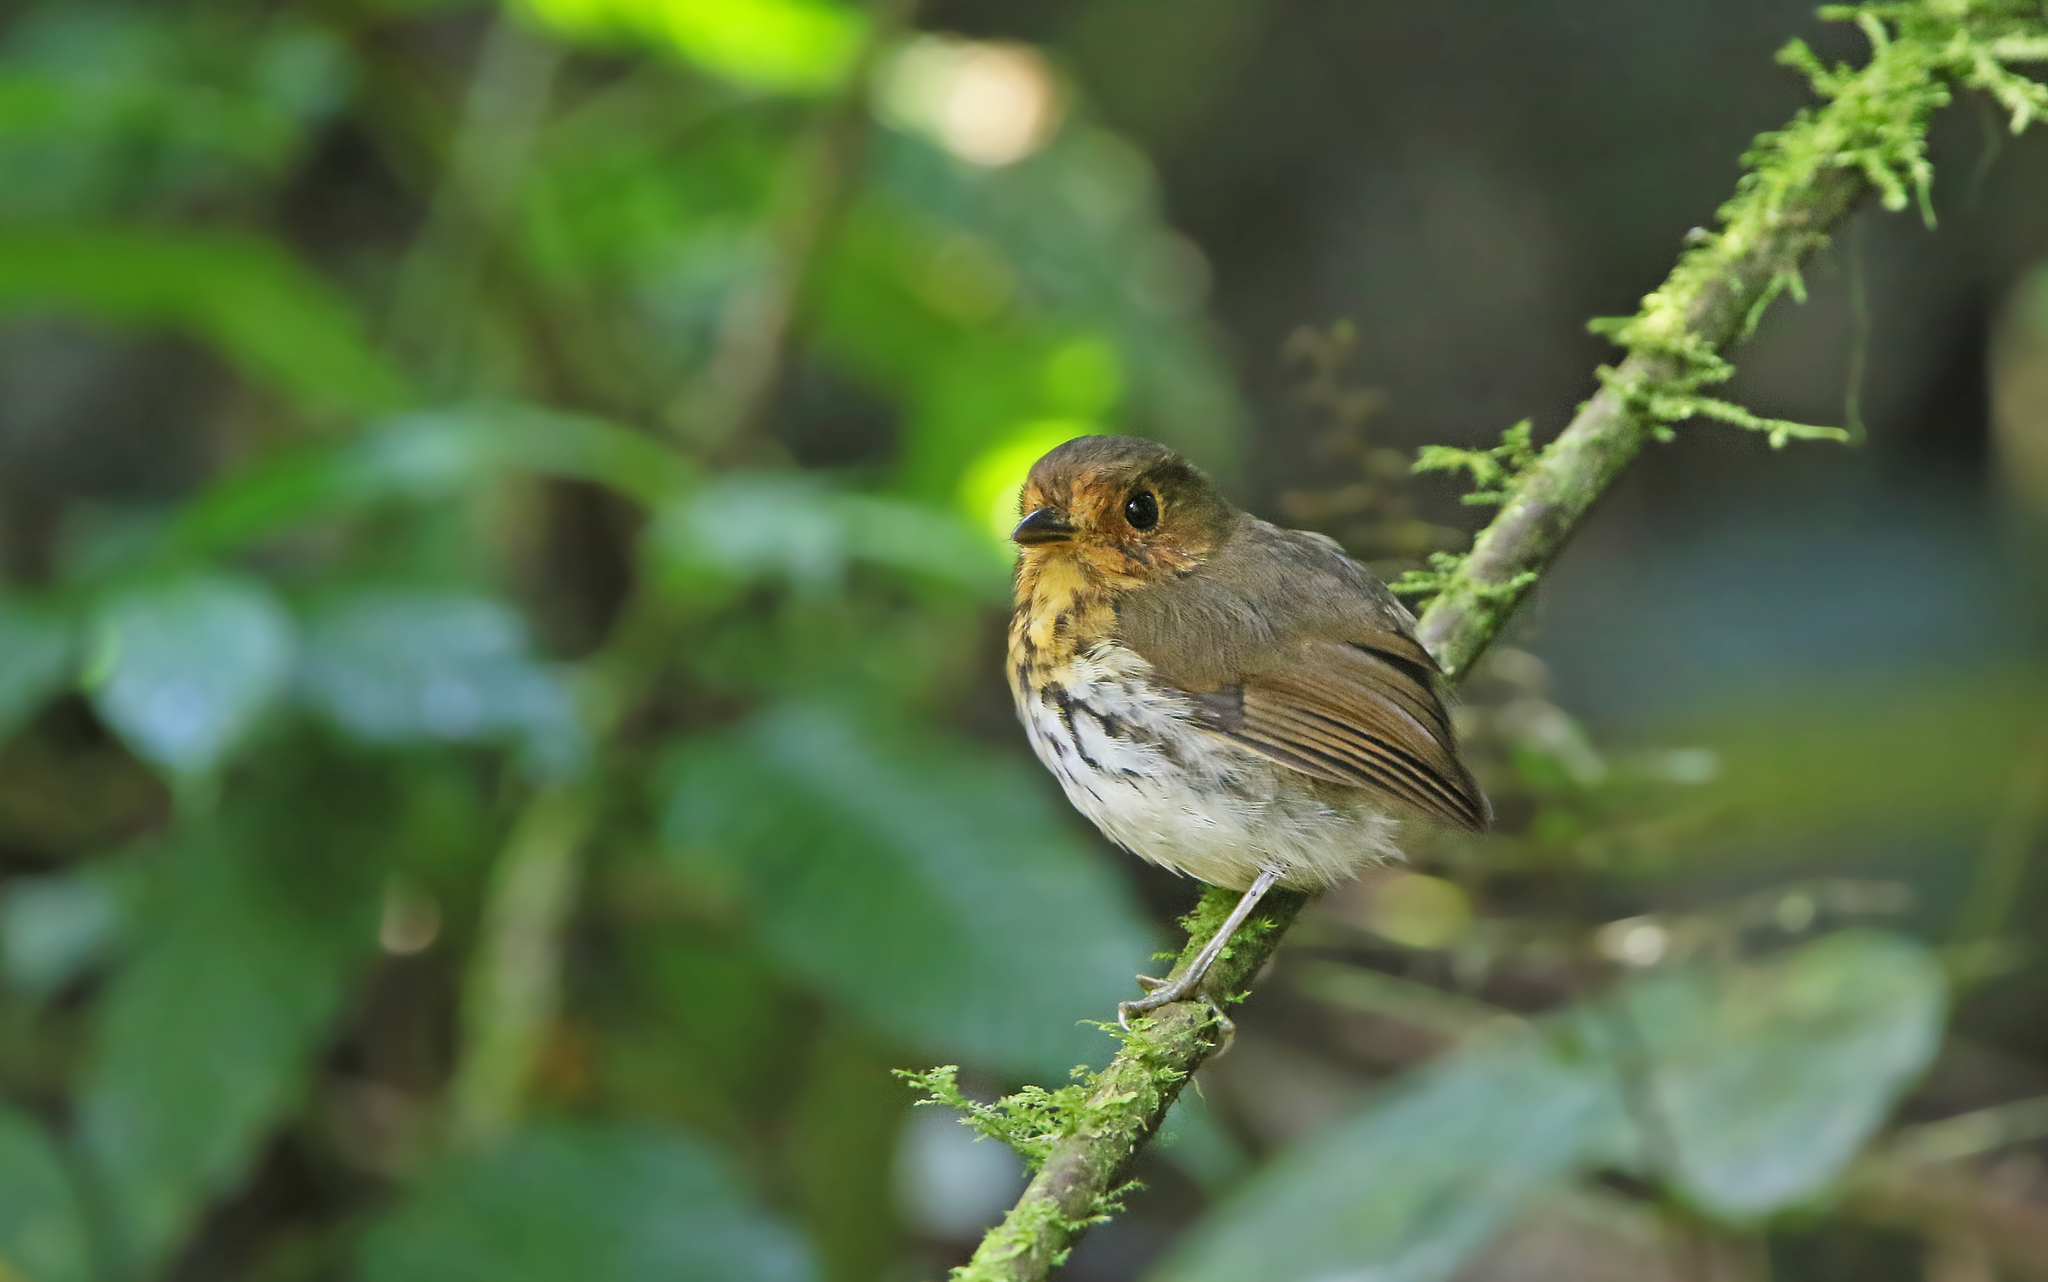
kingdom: Animalia
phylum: Chordata
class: Aves
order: Passeriformes
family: Grallariidae
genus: Grallaricula
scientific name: Grallaricula flavirostris
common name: Ochre-breasted antpitta
